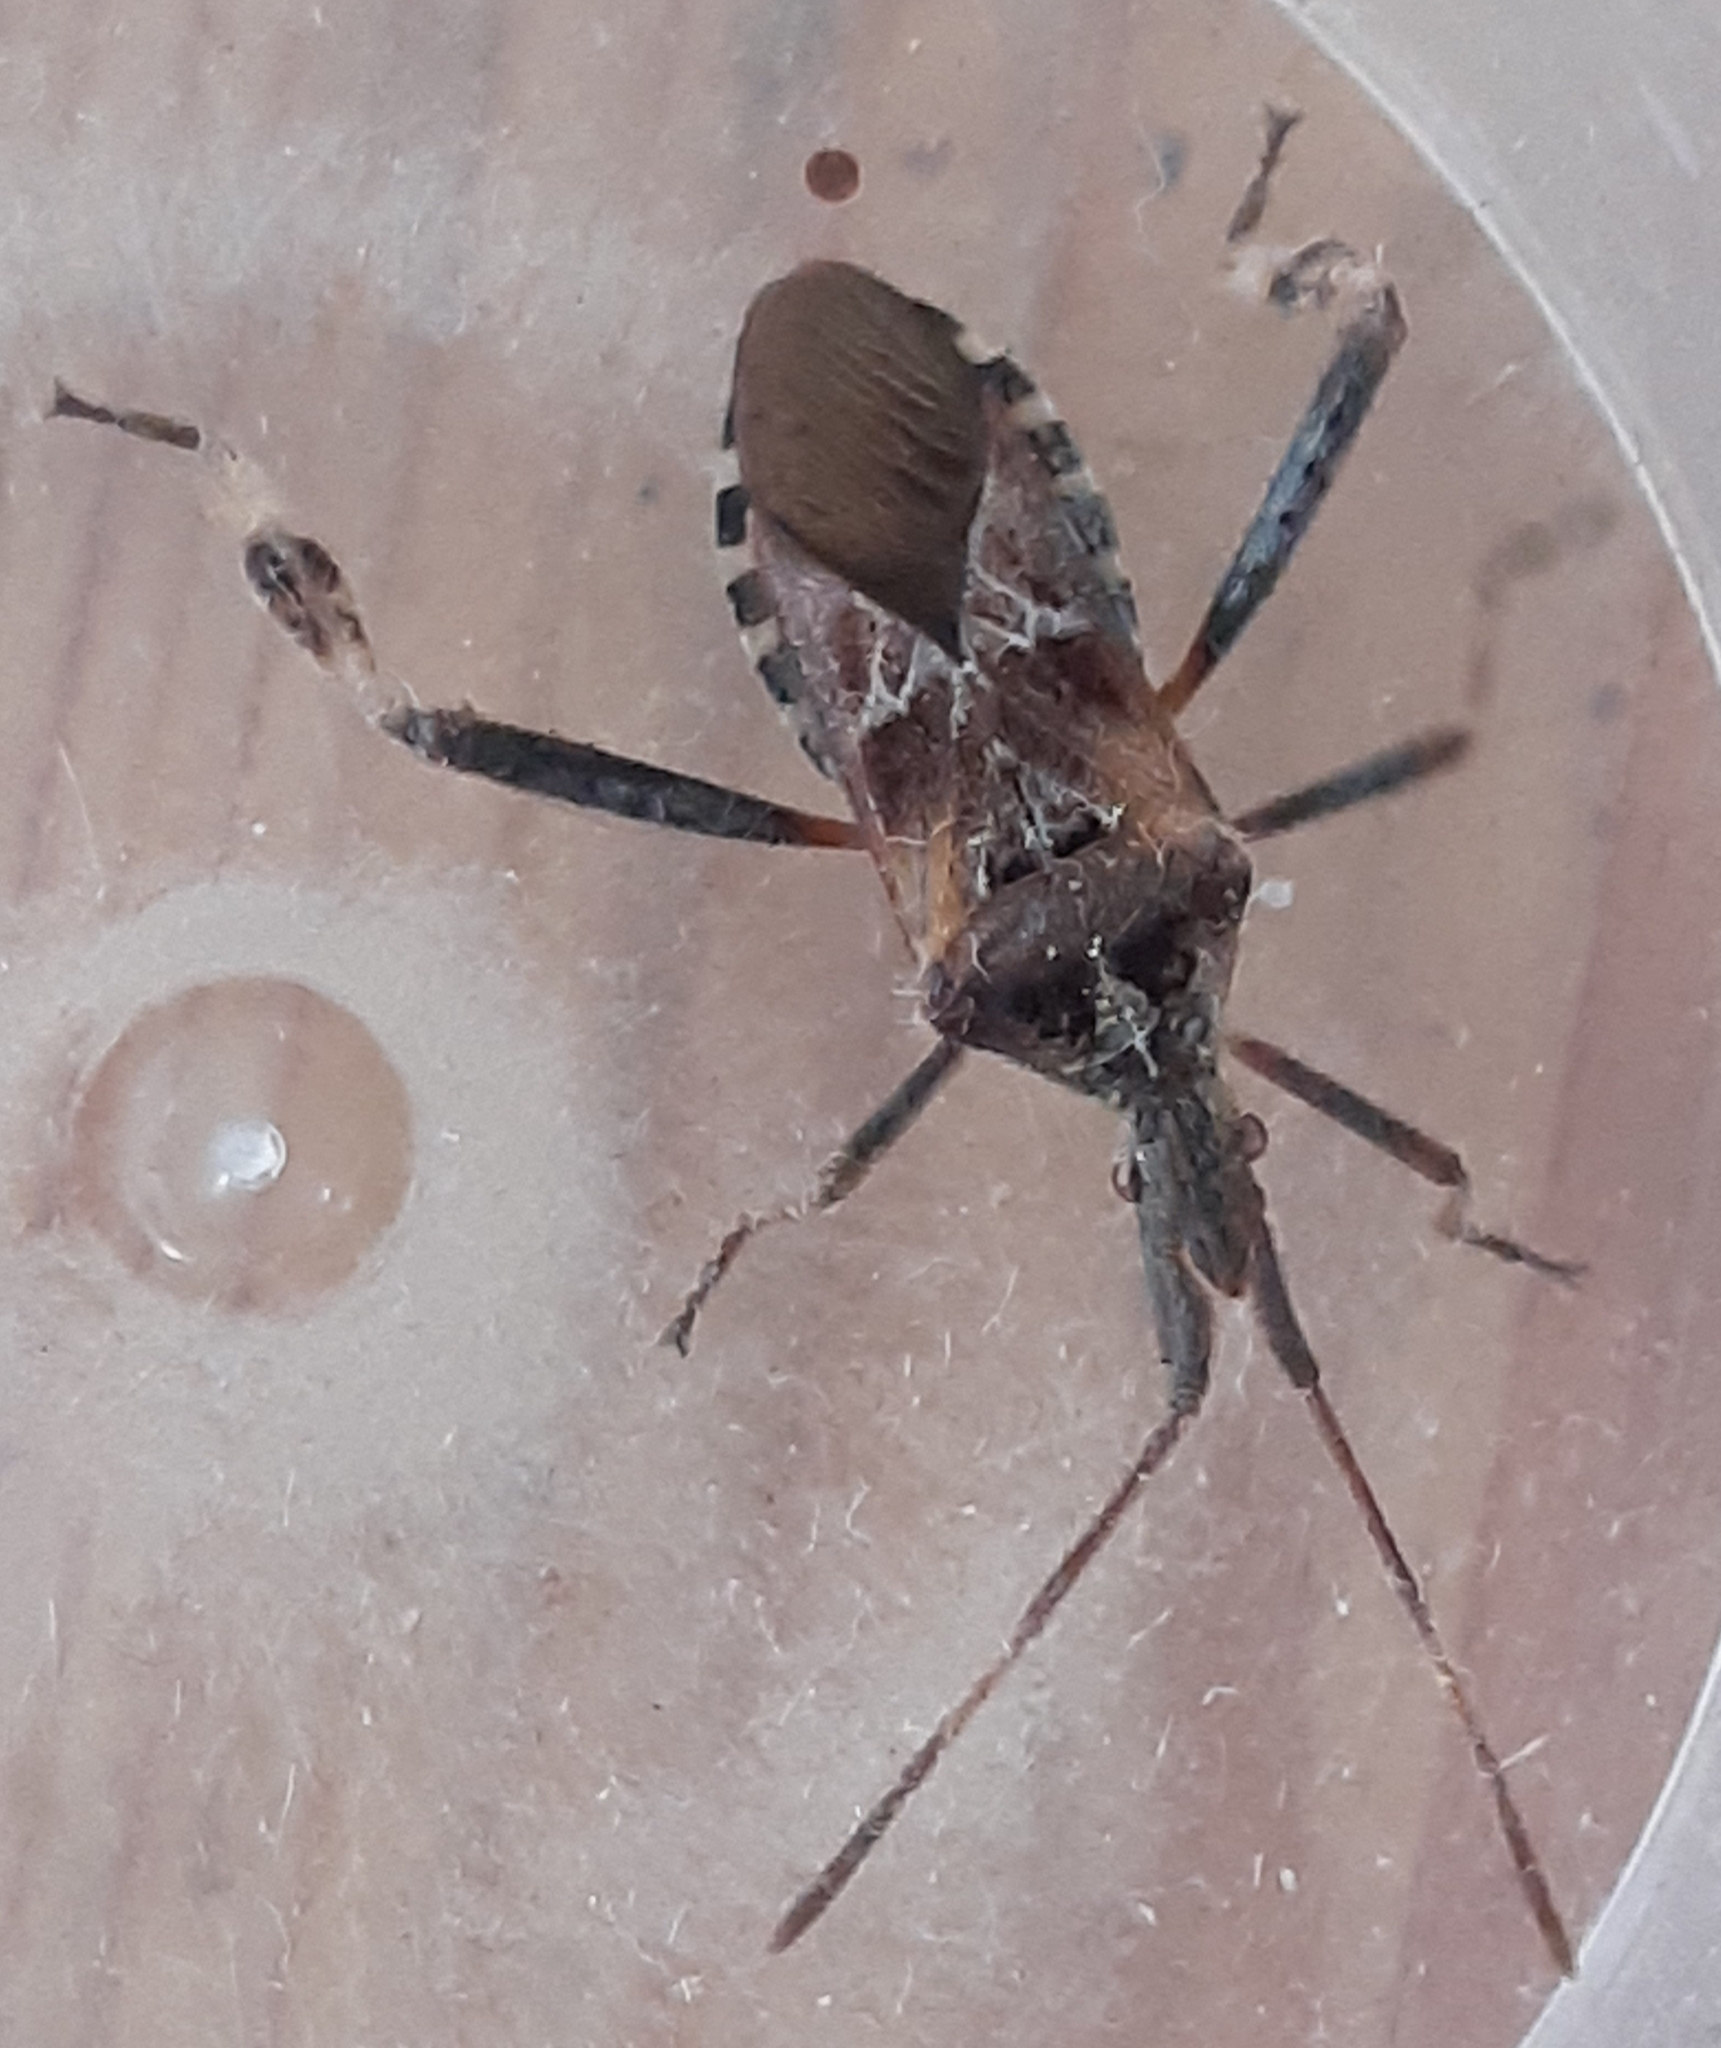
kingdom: Animalia
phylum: Arthropoda
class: Insecta
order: Hemiptera
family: Coreidae
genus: Leptoglossus
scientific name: Leptoglossus occidentalis
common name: Western conifer-seed bug
